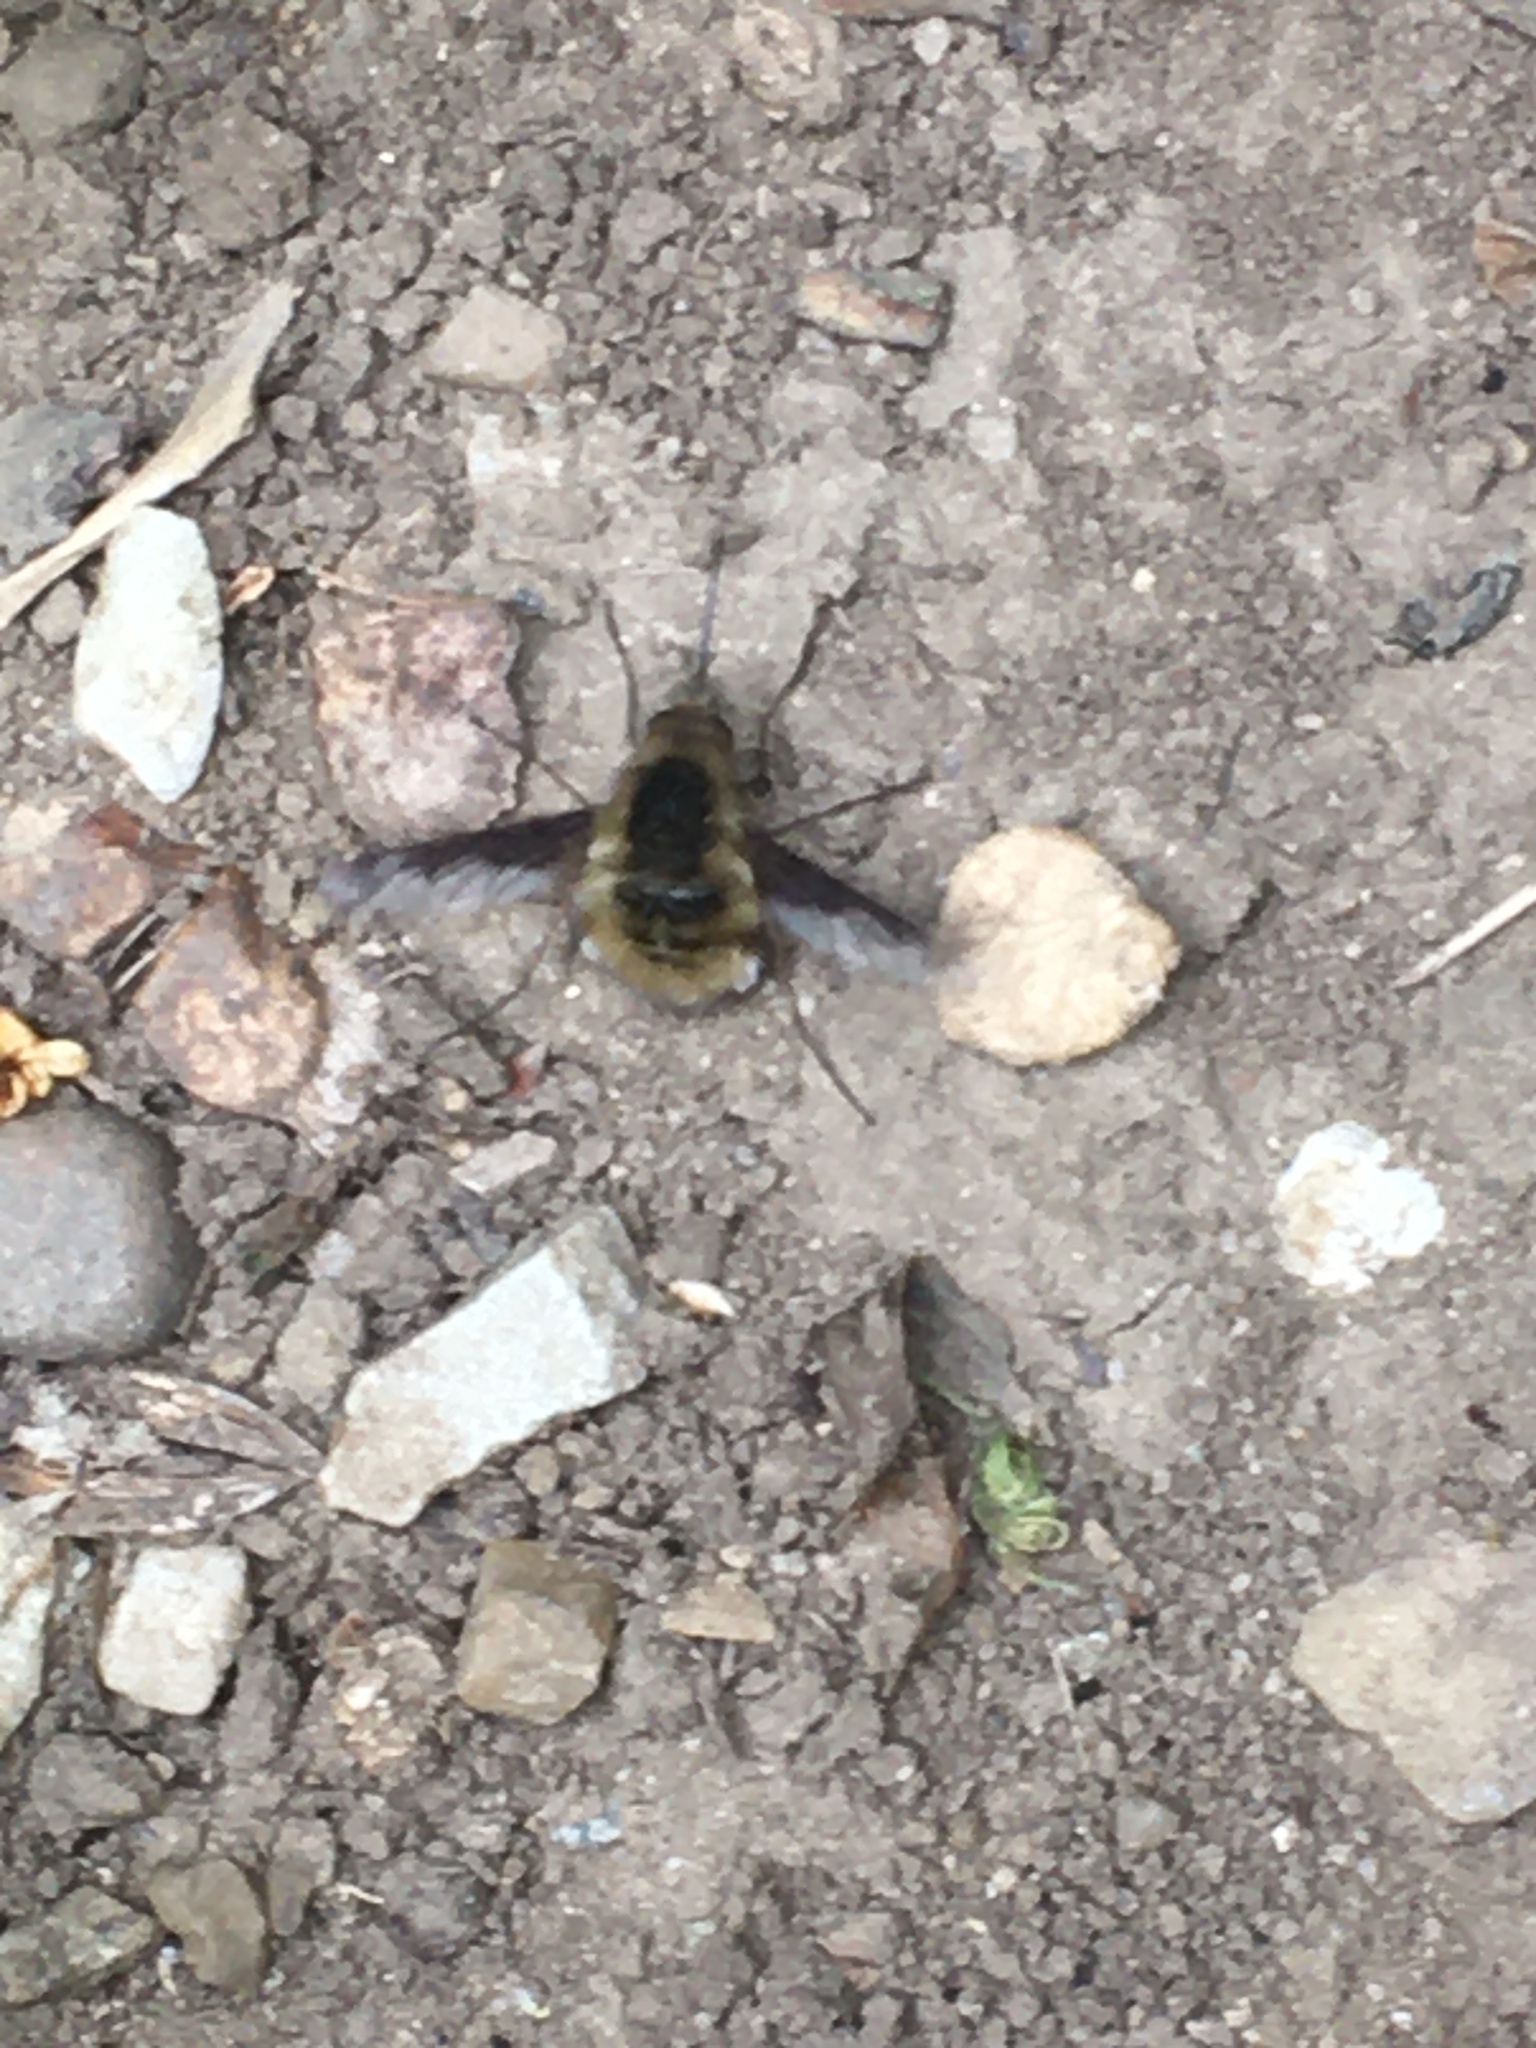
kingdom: Animalia
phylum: Arthropoda
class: Insecta
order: Diptera
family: Bombyliidae
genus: Bombylius
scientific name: Bombylius major
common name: Bee fly
